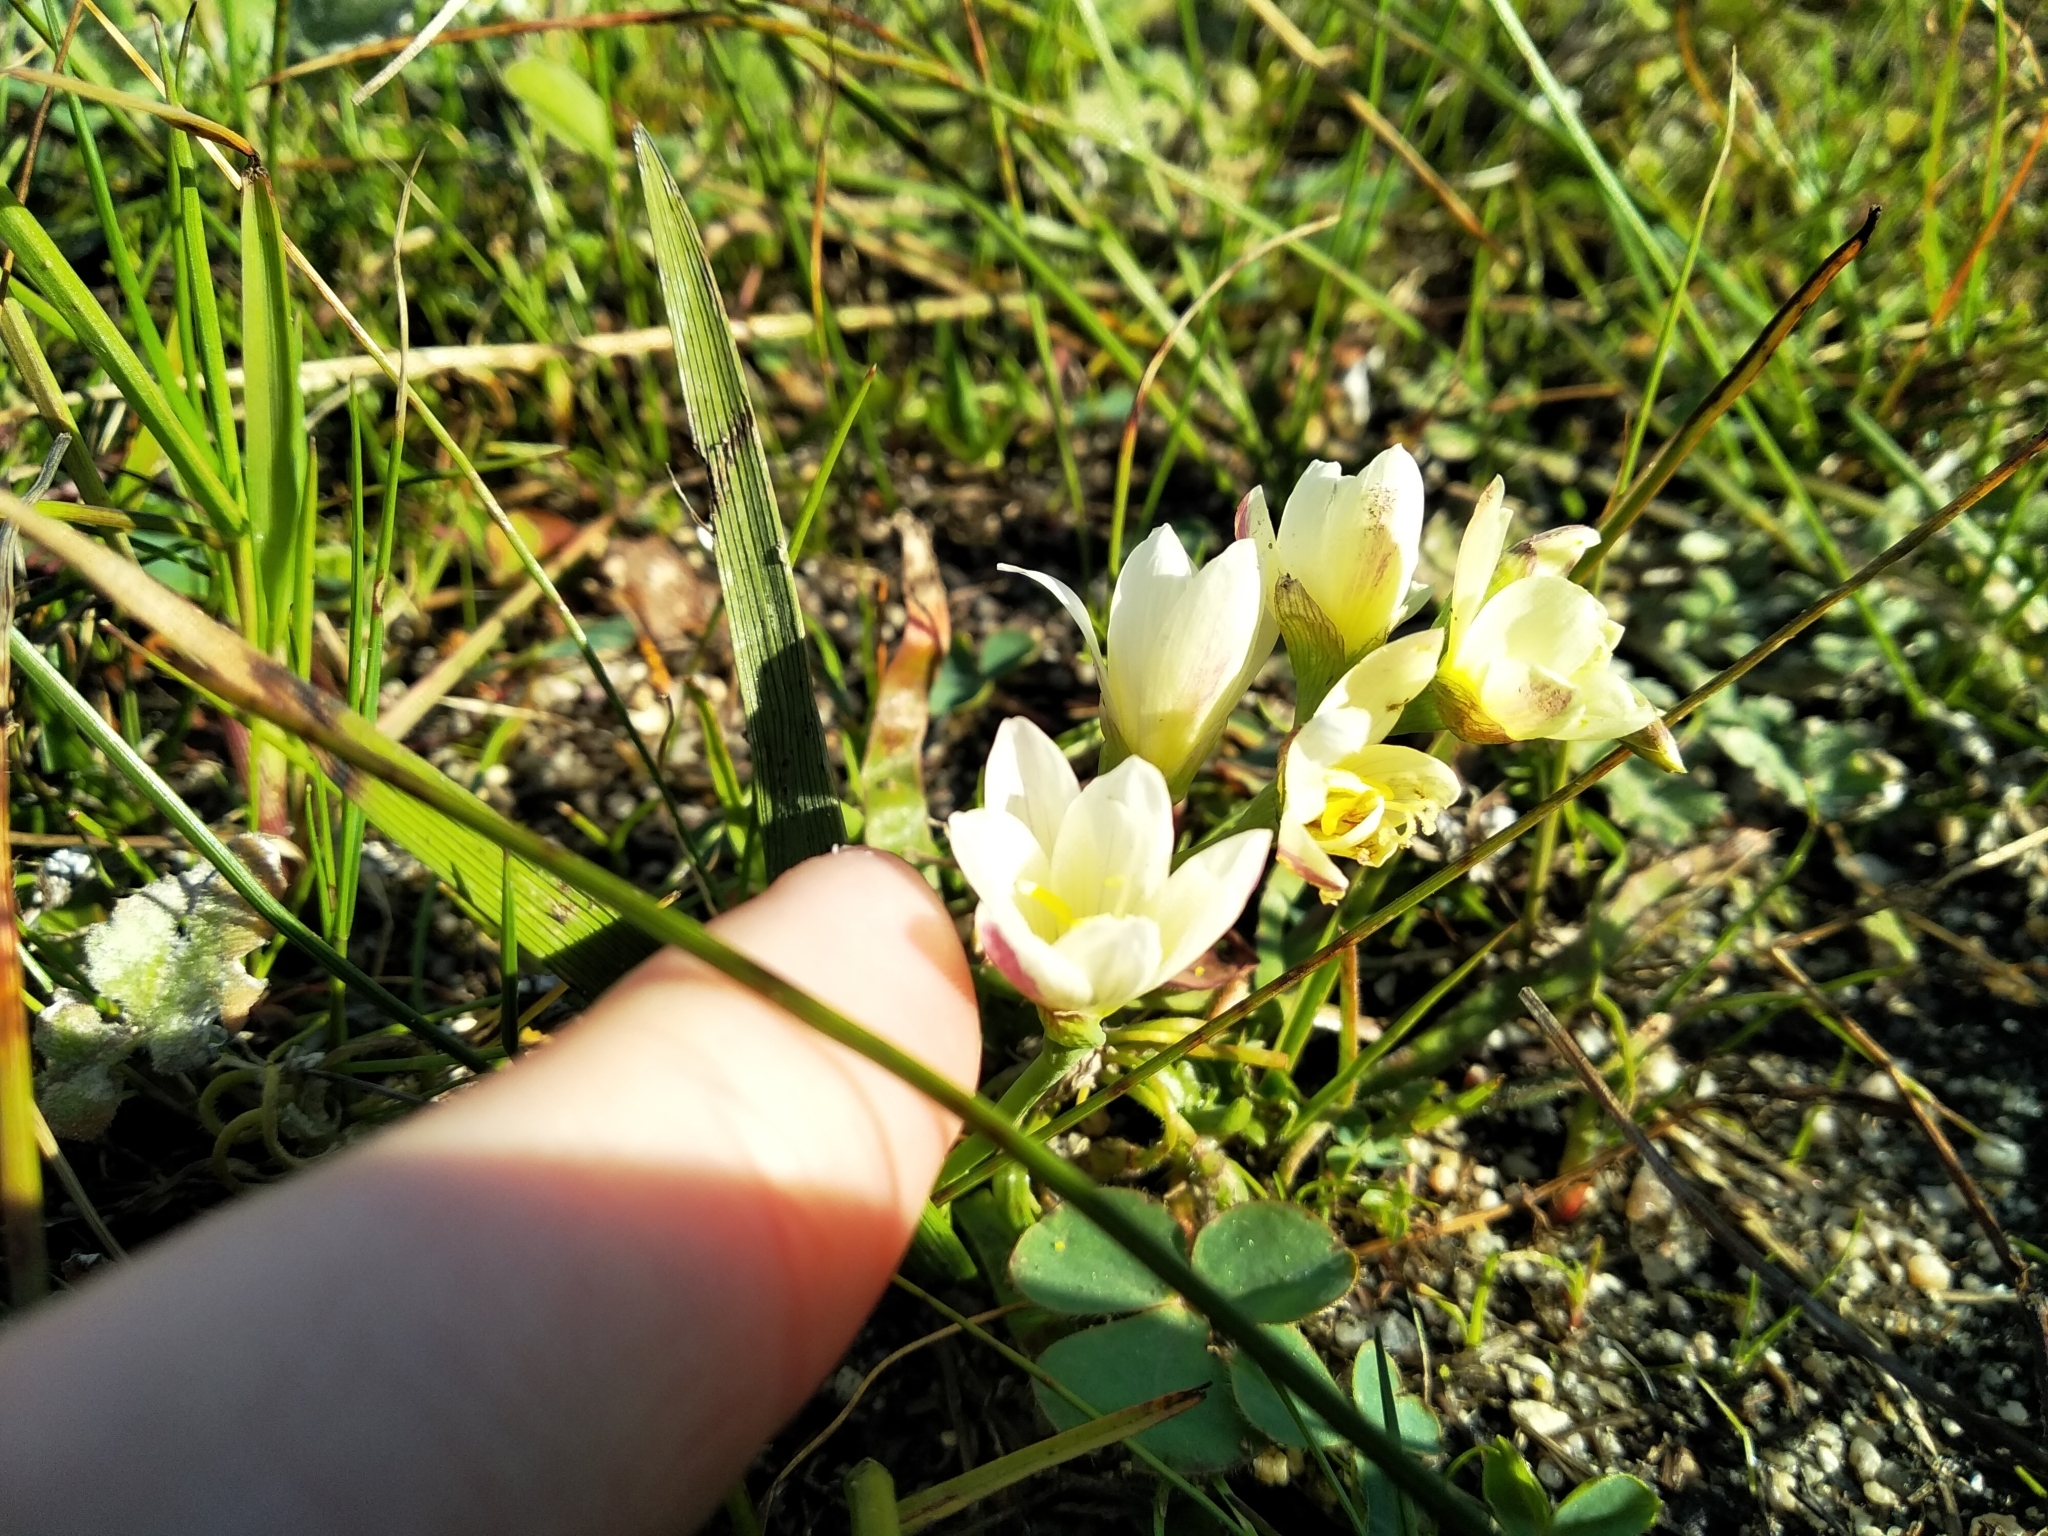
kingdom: Plantae
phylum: Tracheophyta
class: Liliopsida
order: Asparagales
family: Iridaceae
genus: Geissorhiza
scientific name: Geissorhiza imbricata
